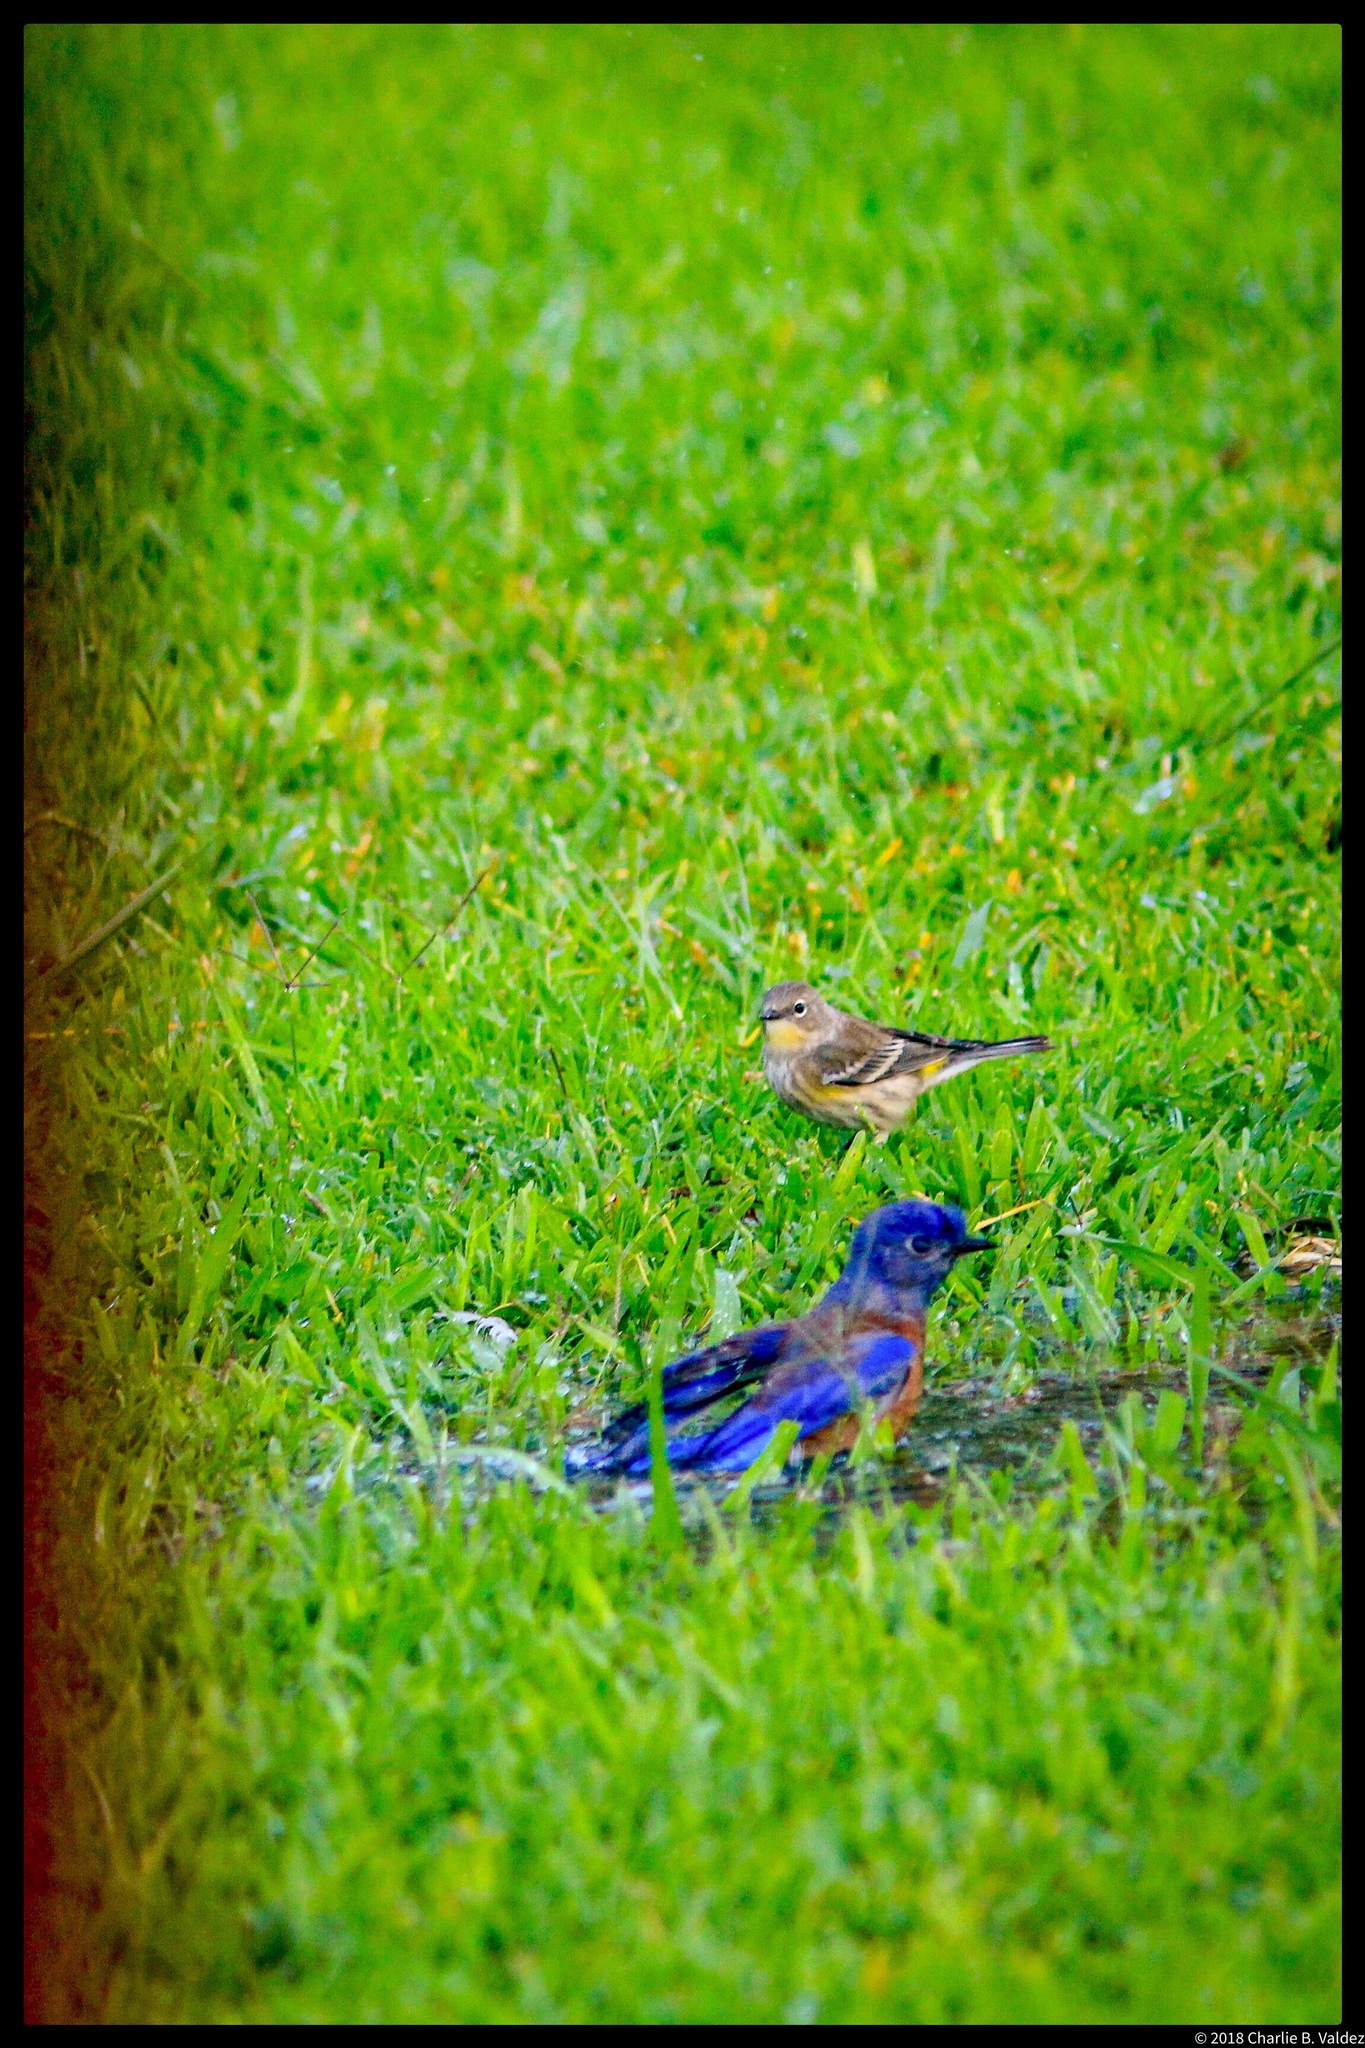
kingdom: Animalia
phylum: Chordata
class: Aves
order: Passeriformes
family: Parulidae
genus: Setophaga
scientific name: Setophaga coronata
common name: Myrtle warbler
